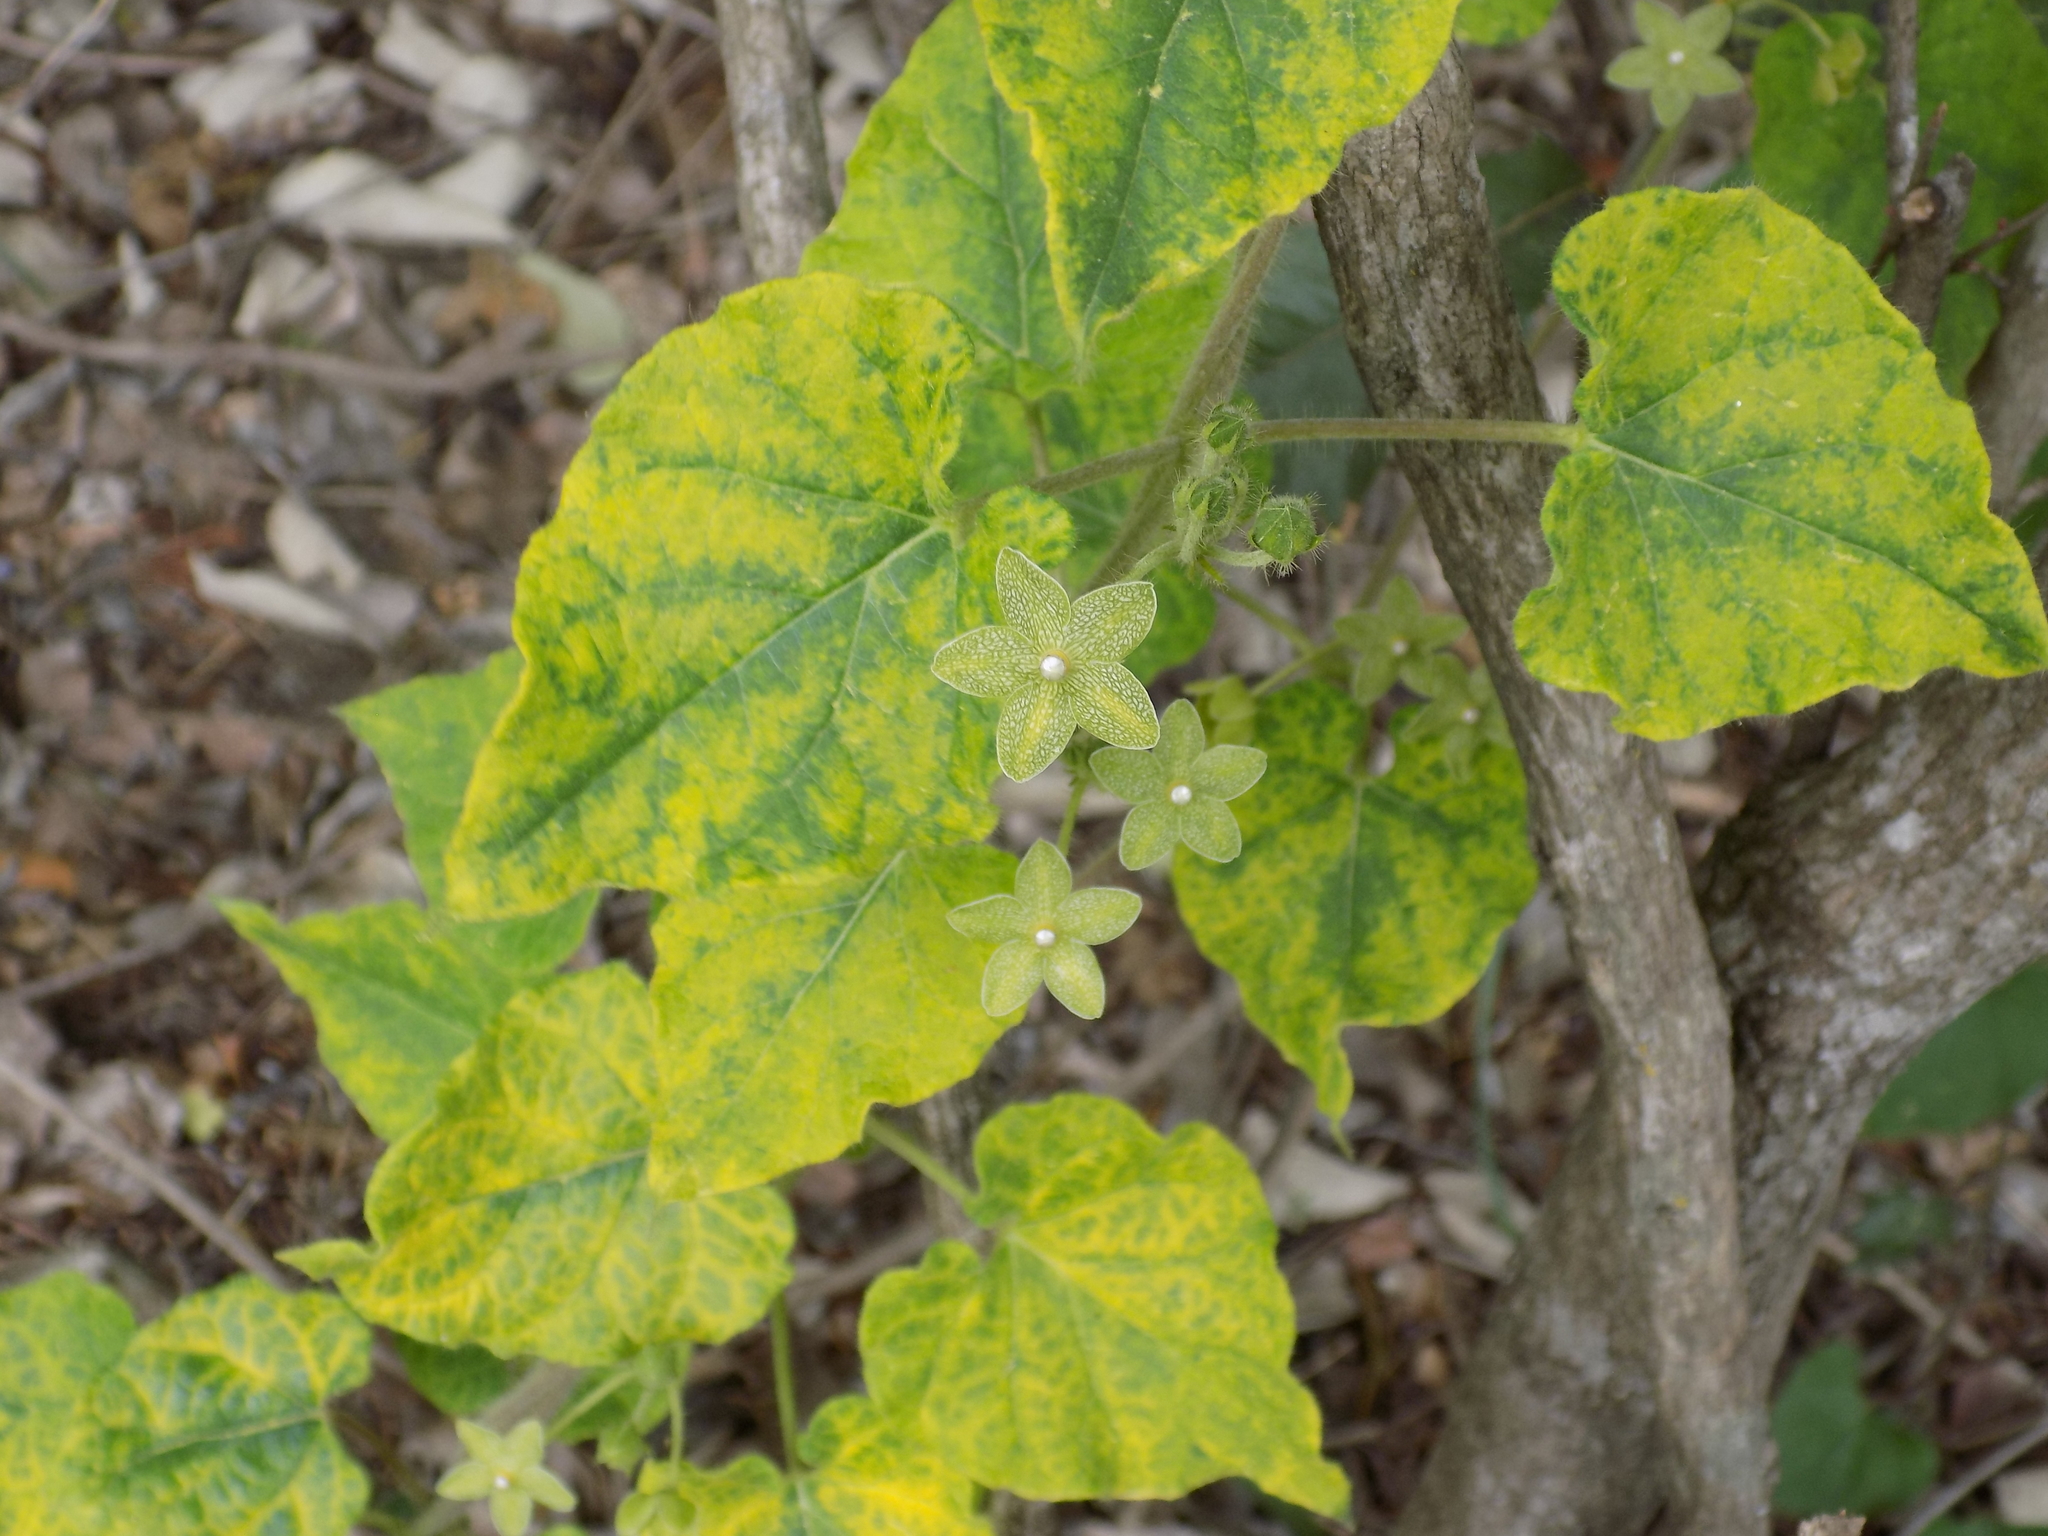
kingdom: Plantae
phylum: Tracheophyta
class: Magnoliopsida
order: Gentianales
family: Apocynaceae
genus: Dictyanthus
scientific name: Dictyanthus reticulatus
